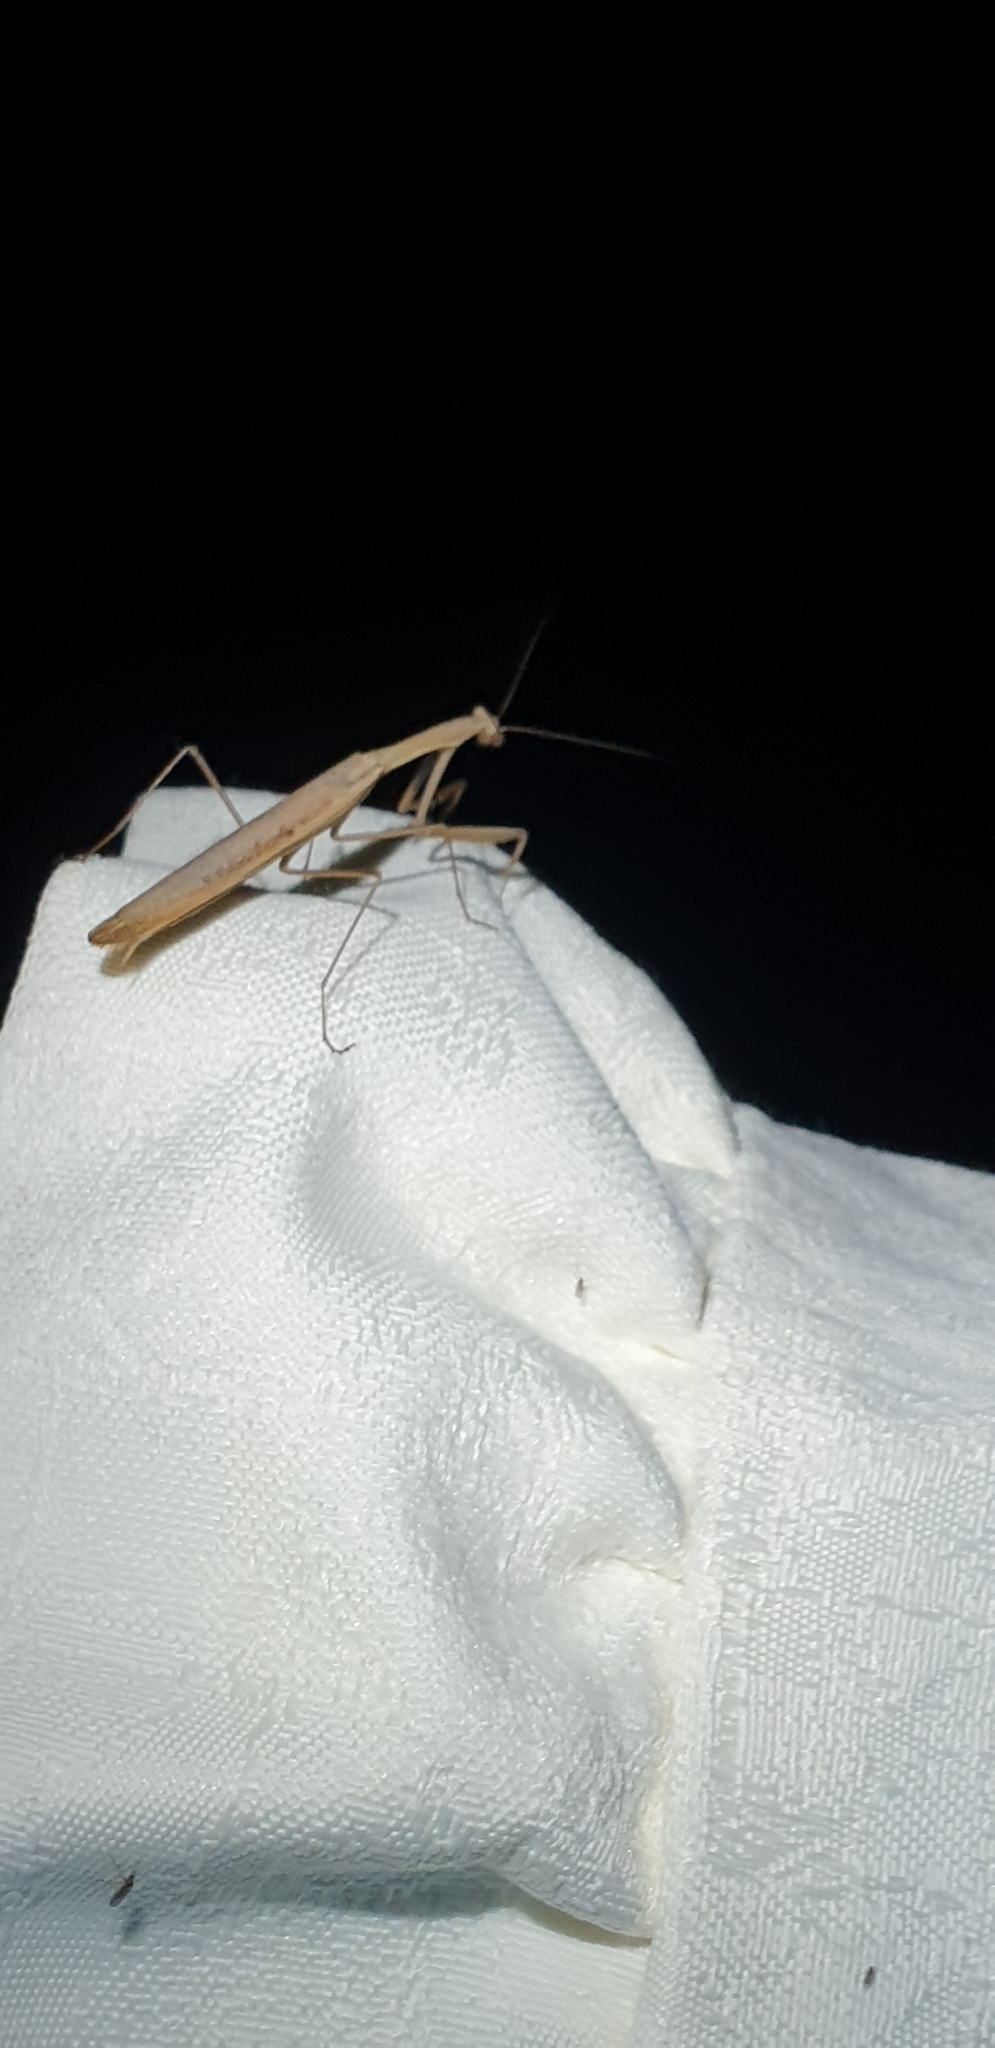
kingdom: Animalia
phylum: Arthropoda
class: Insecta
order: Mantodea
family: Mantidae
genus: Statilia
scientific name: Statilia apicalis
